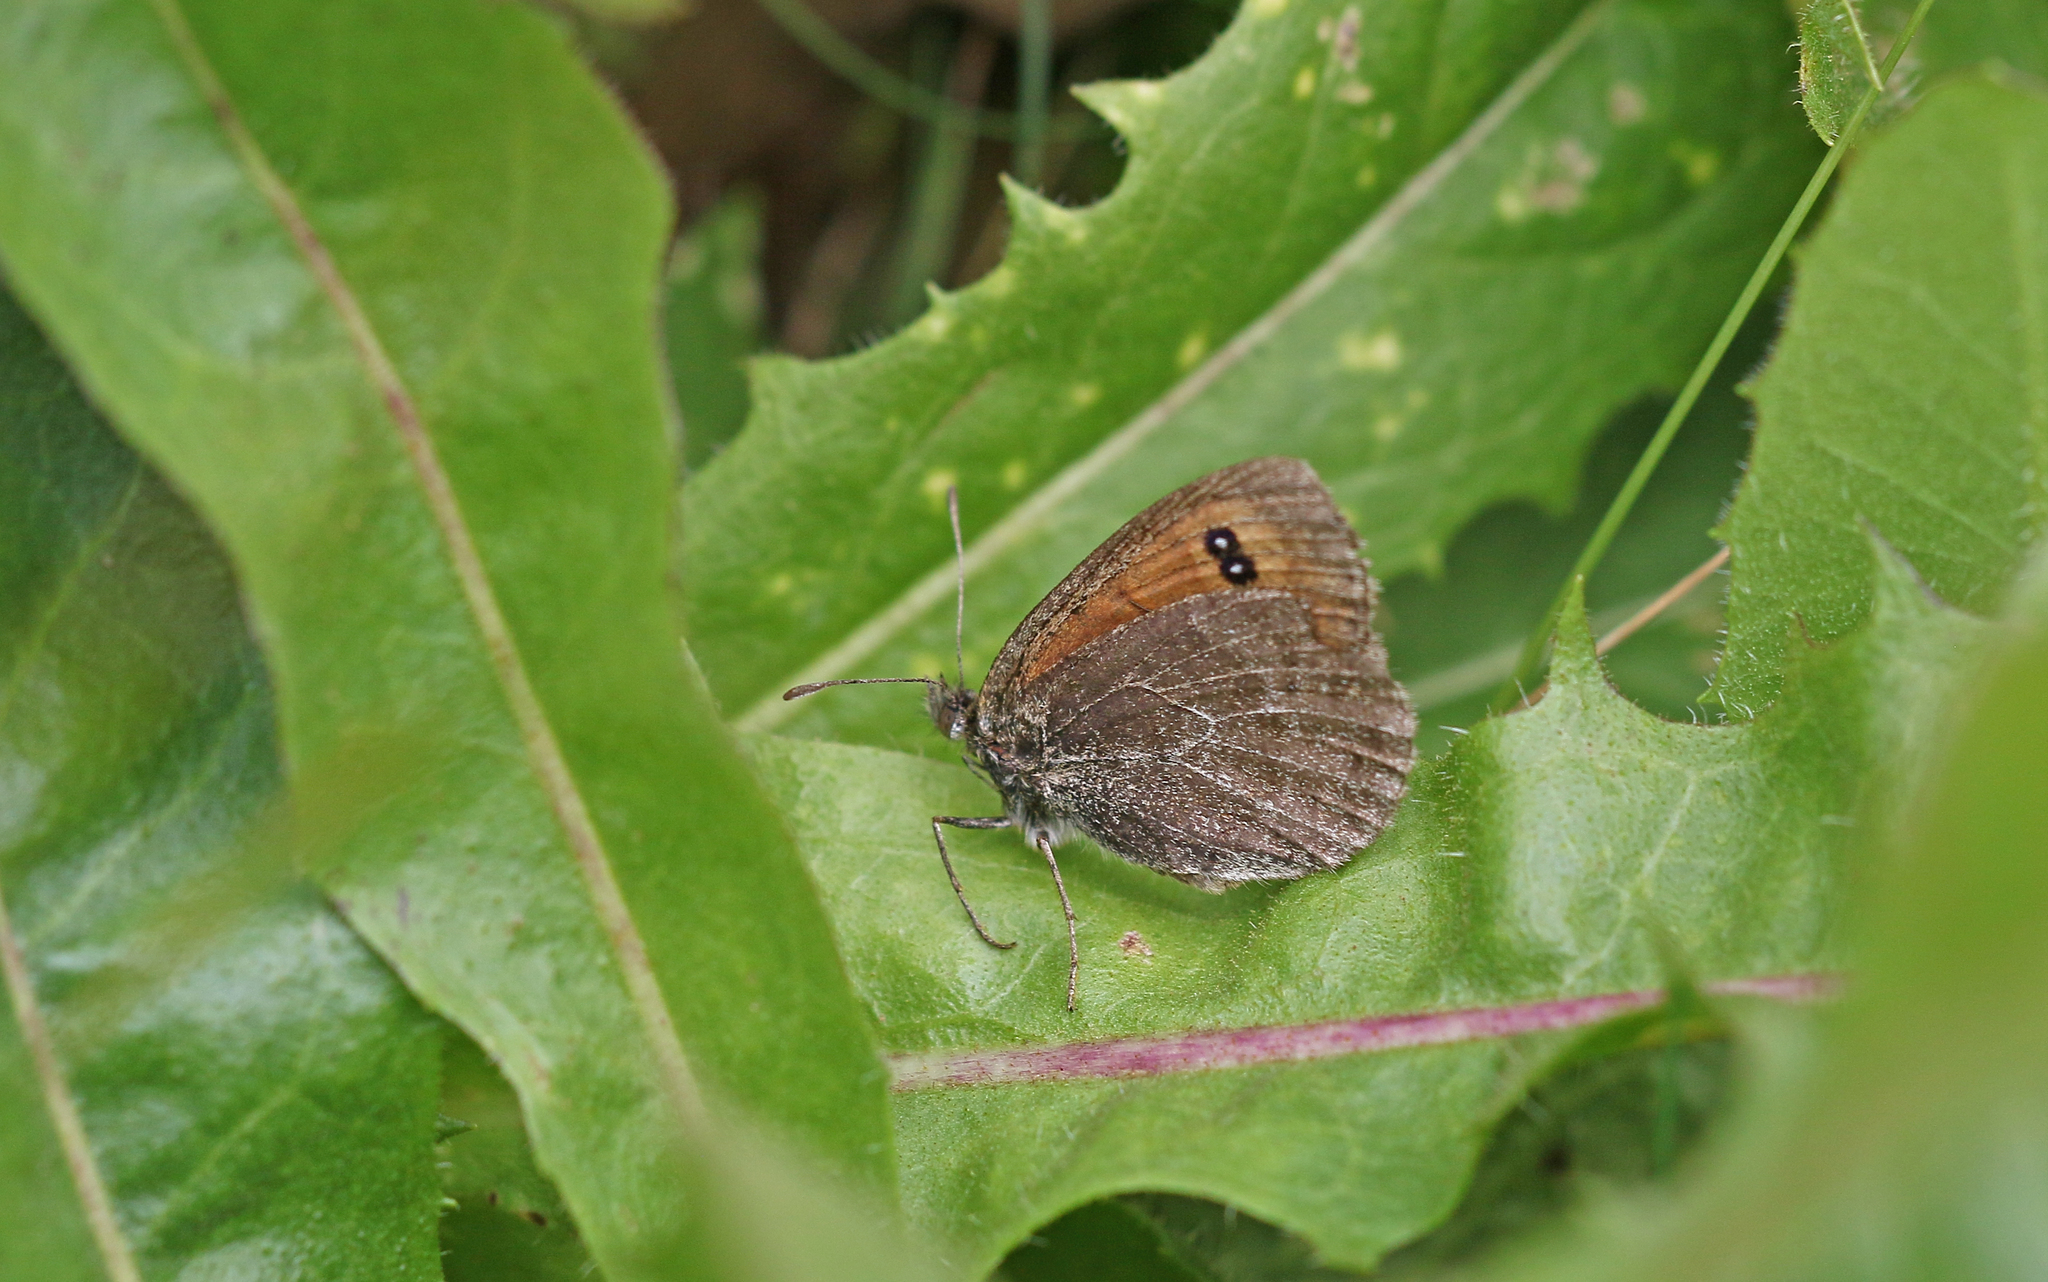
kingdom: Animalia
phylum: Arthropoda
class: Insecta
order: Lepidoptera
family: Nymphalidae
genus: Erebia
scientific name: Erebia tyndarus
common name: Swiss brassy ringlet
